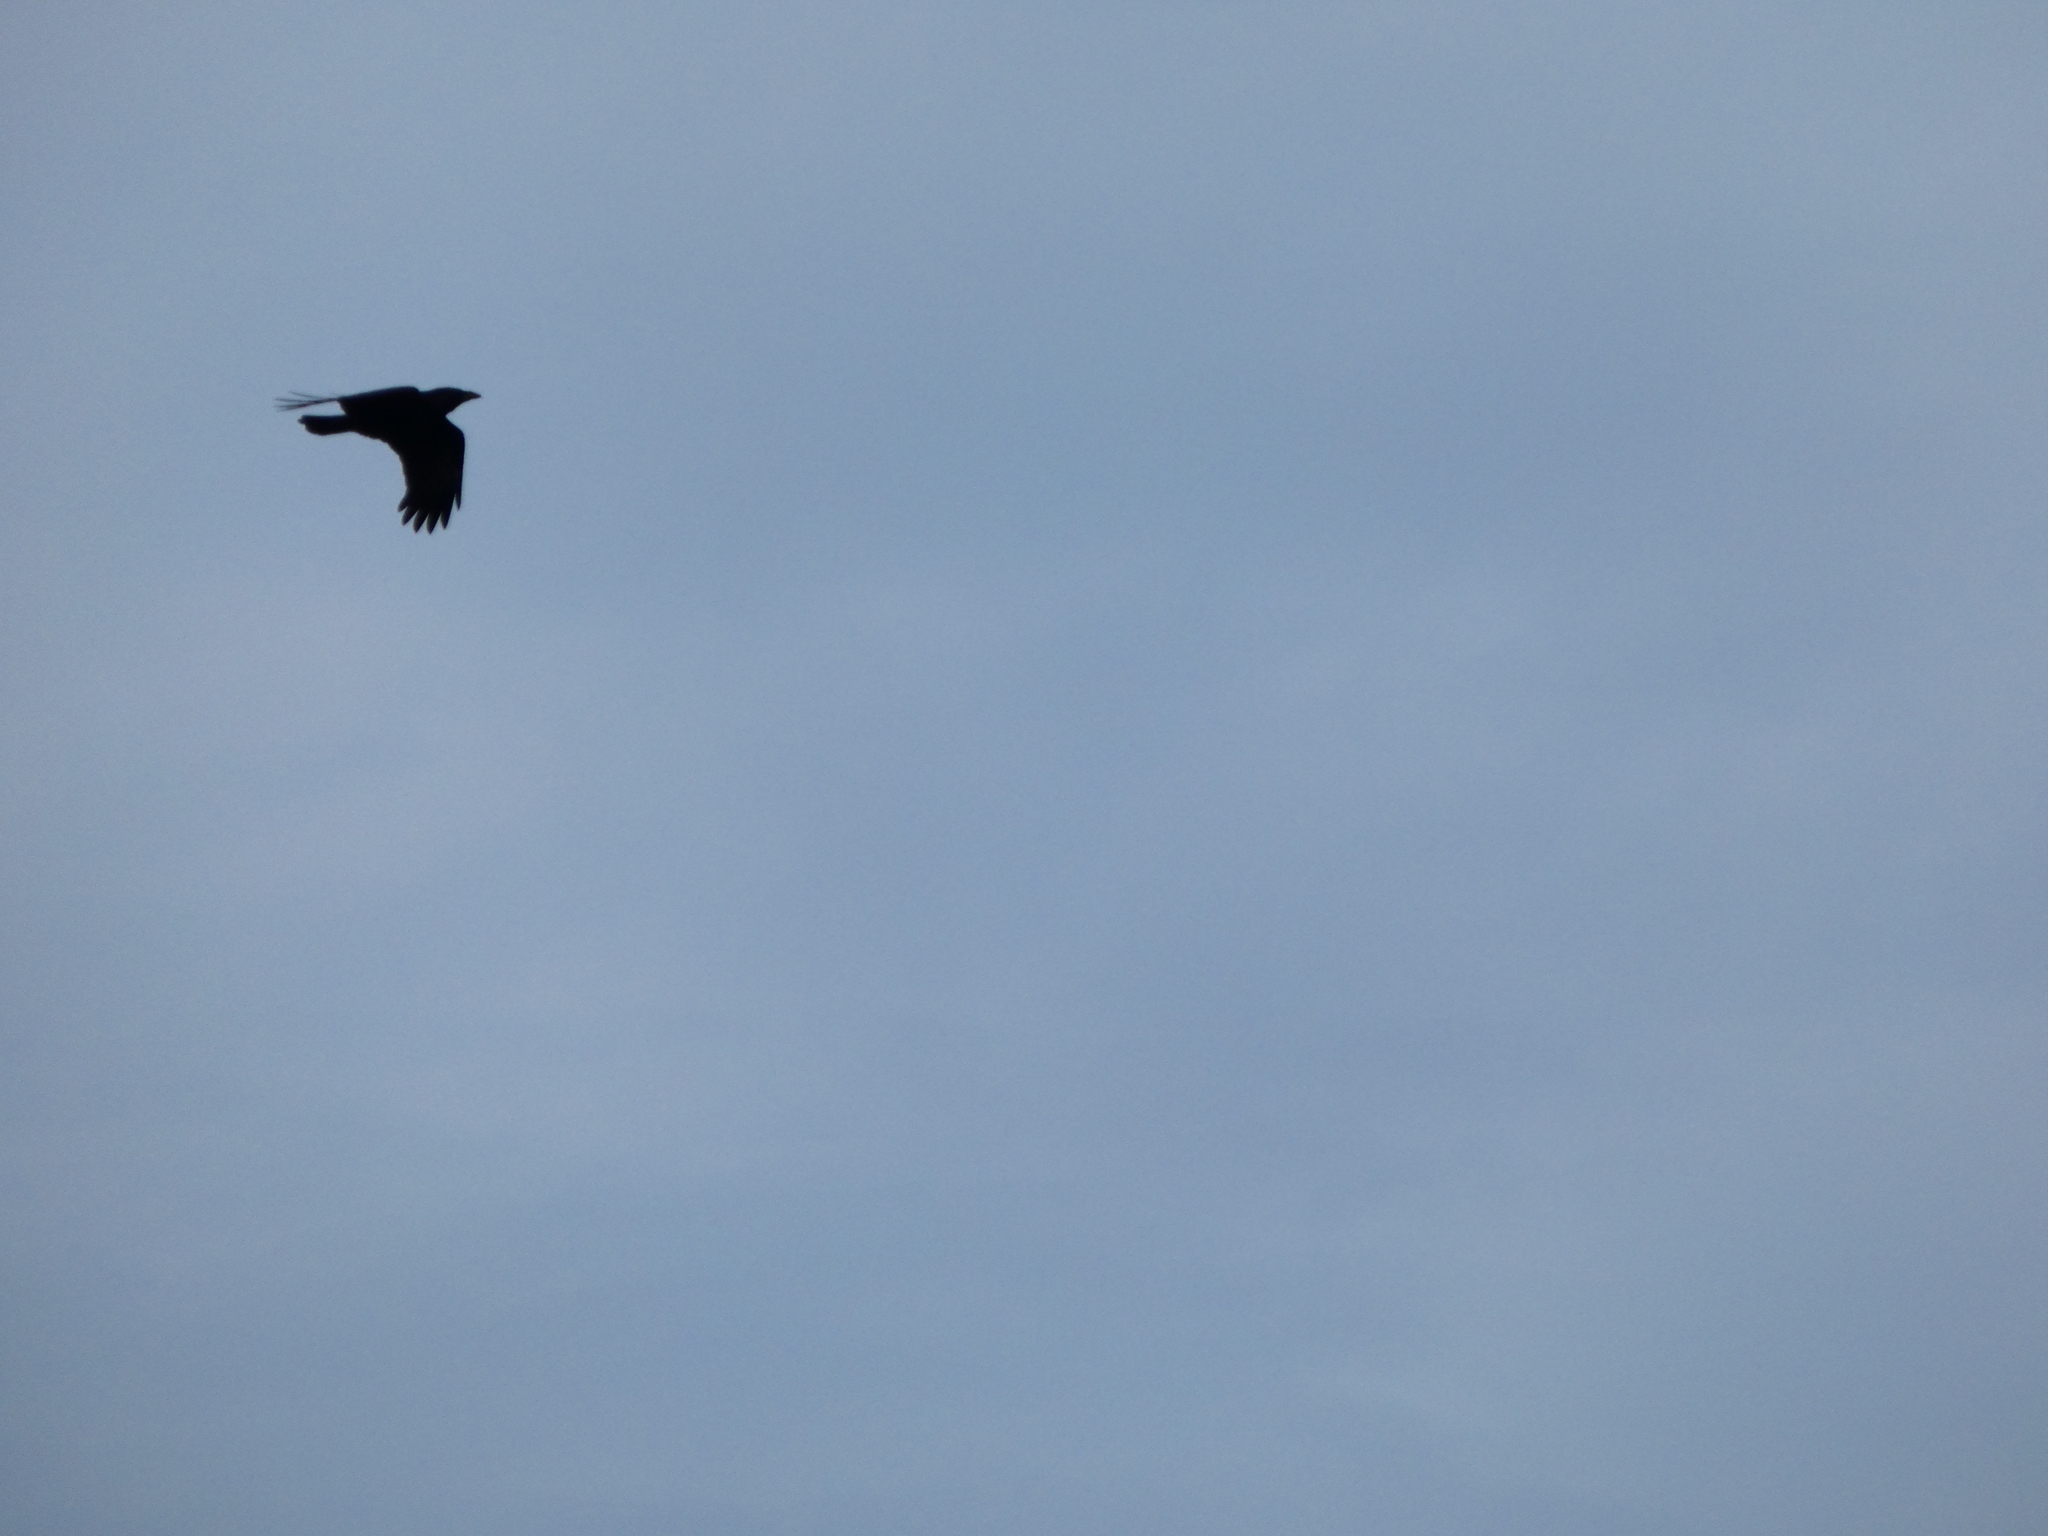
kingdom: Animalia
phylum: Chordata
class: Aves
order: Passeriformes
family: Corvidae
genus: Corvus
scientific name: Corvus corax
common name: Common raven
